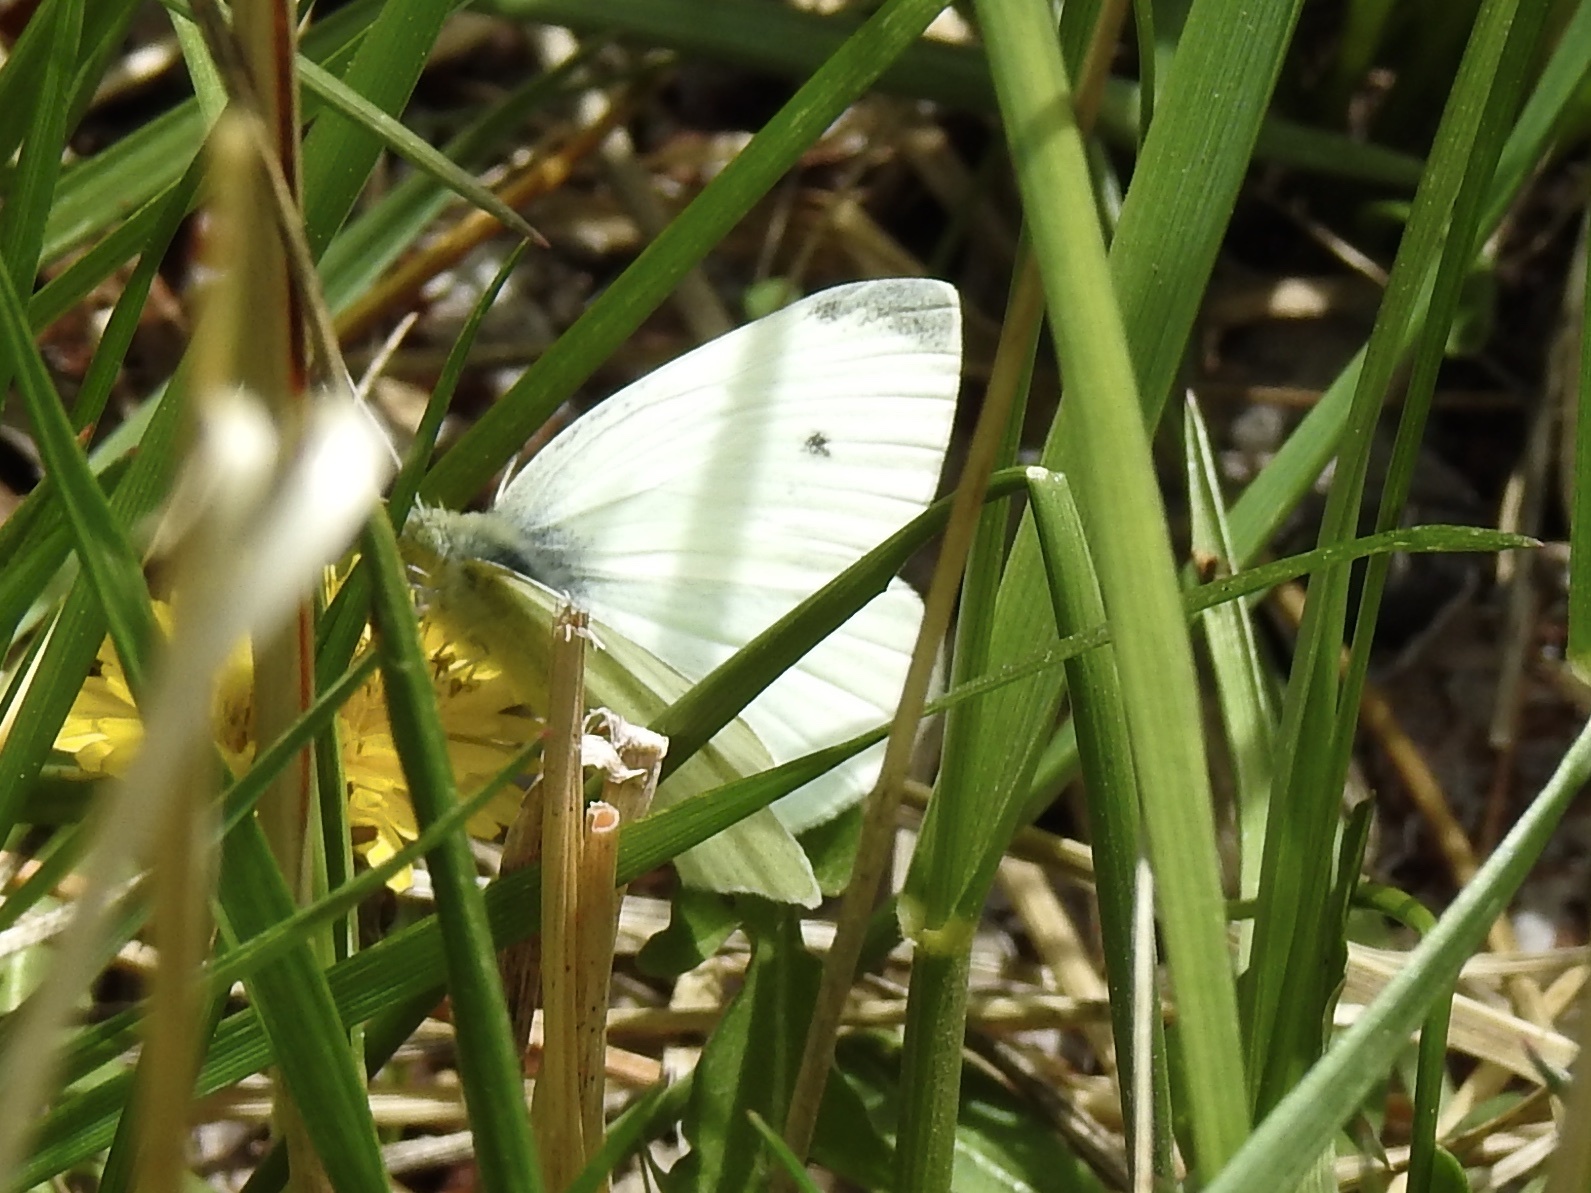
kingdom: Animalia
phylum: Arthropoda
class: Insecta
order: Lepidoptera
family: Pieridae
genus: Pieris
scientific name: Pieris rapae
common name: Small white
